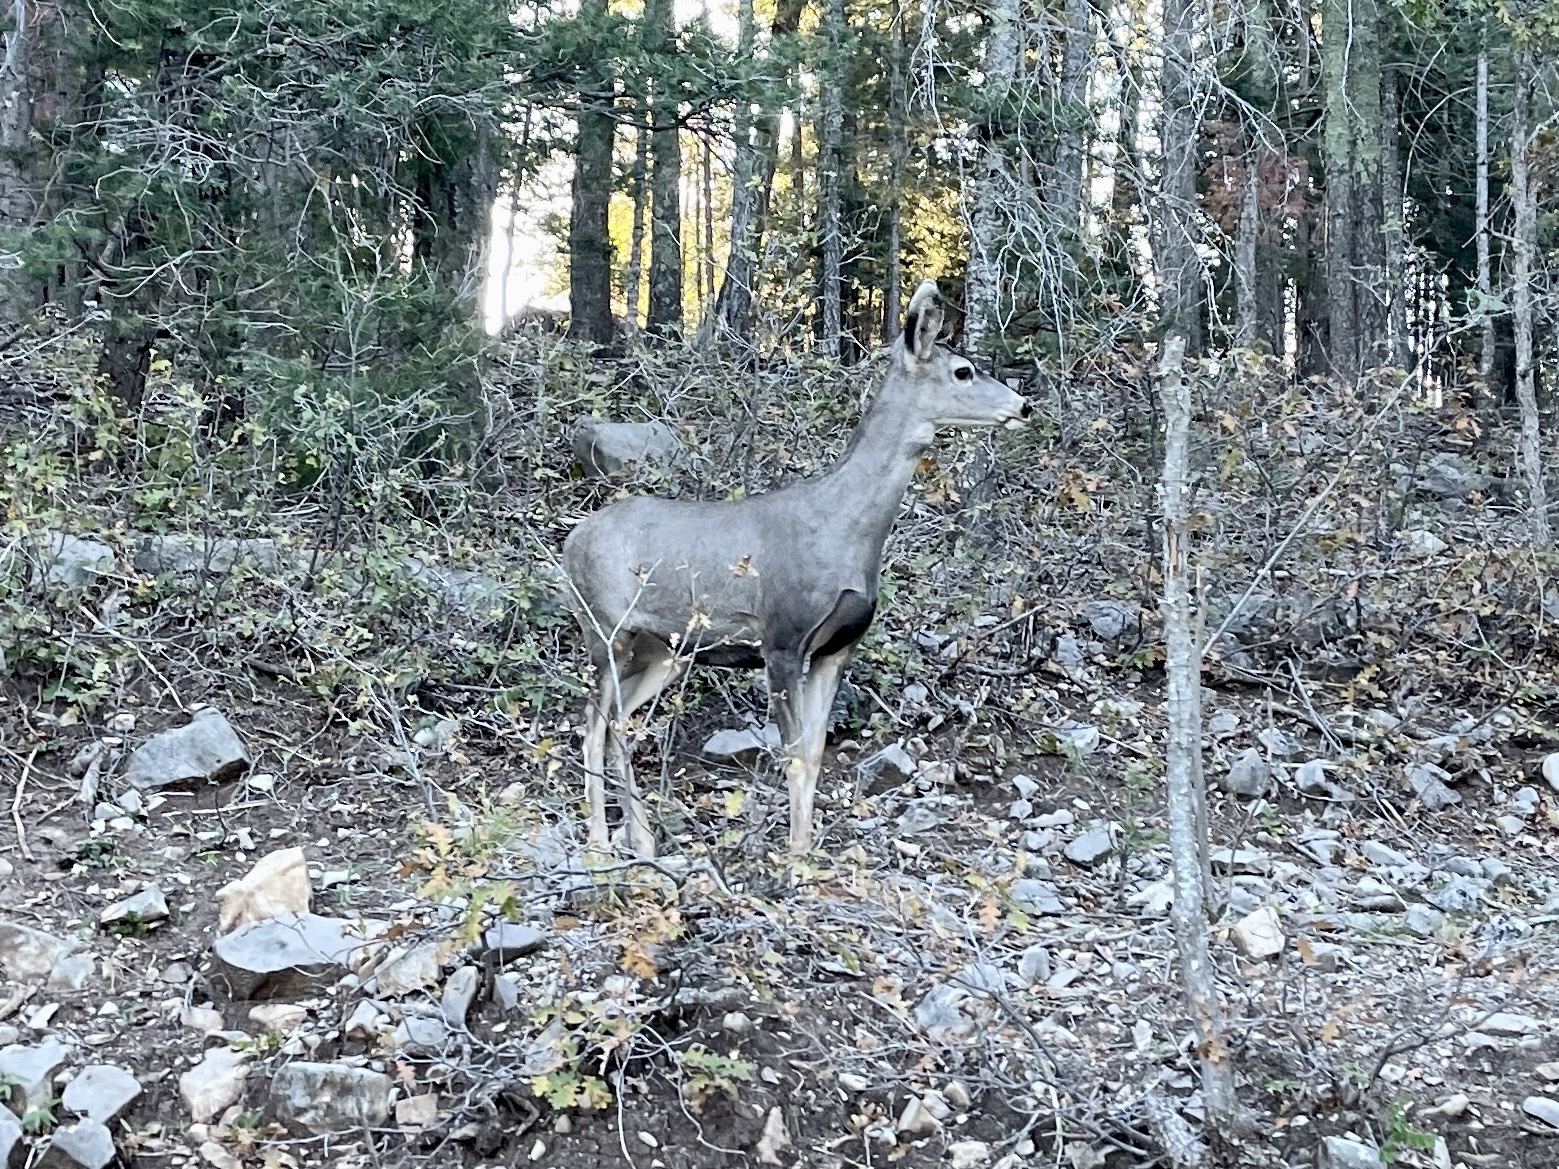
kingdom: Animalia
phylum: Chordata
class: Mammalia
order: Artiodactyla
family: Cervidae
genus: Odocoileus
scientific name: Odocoileus hemionus
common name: Mule deer
